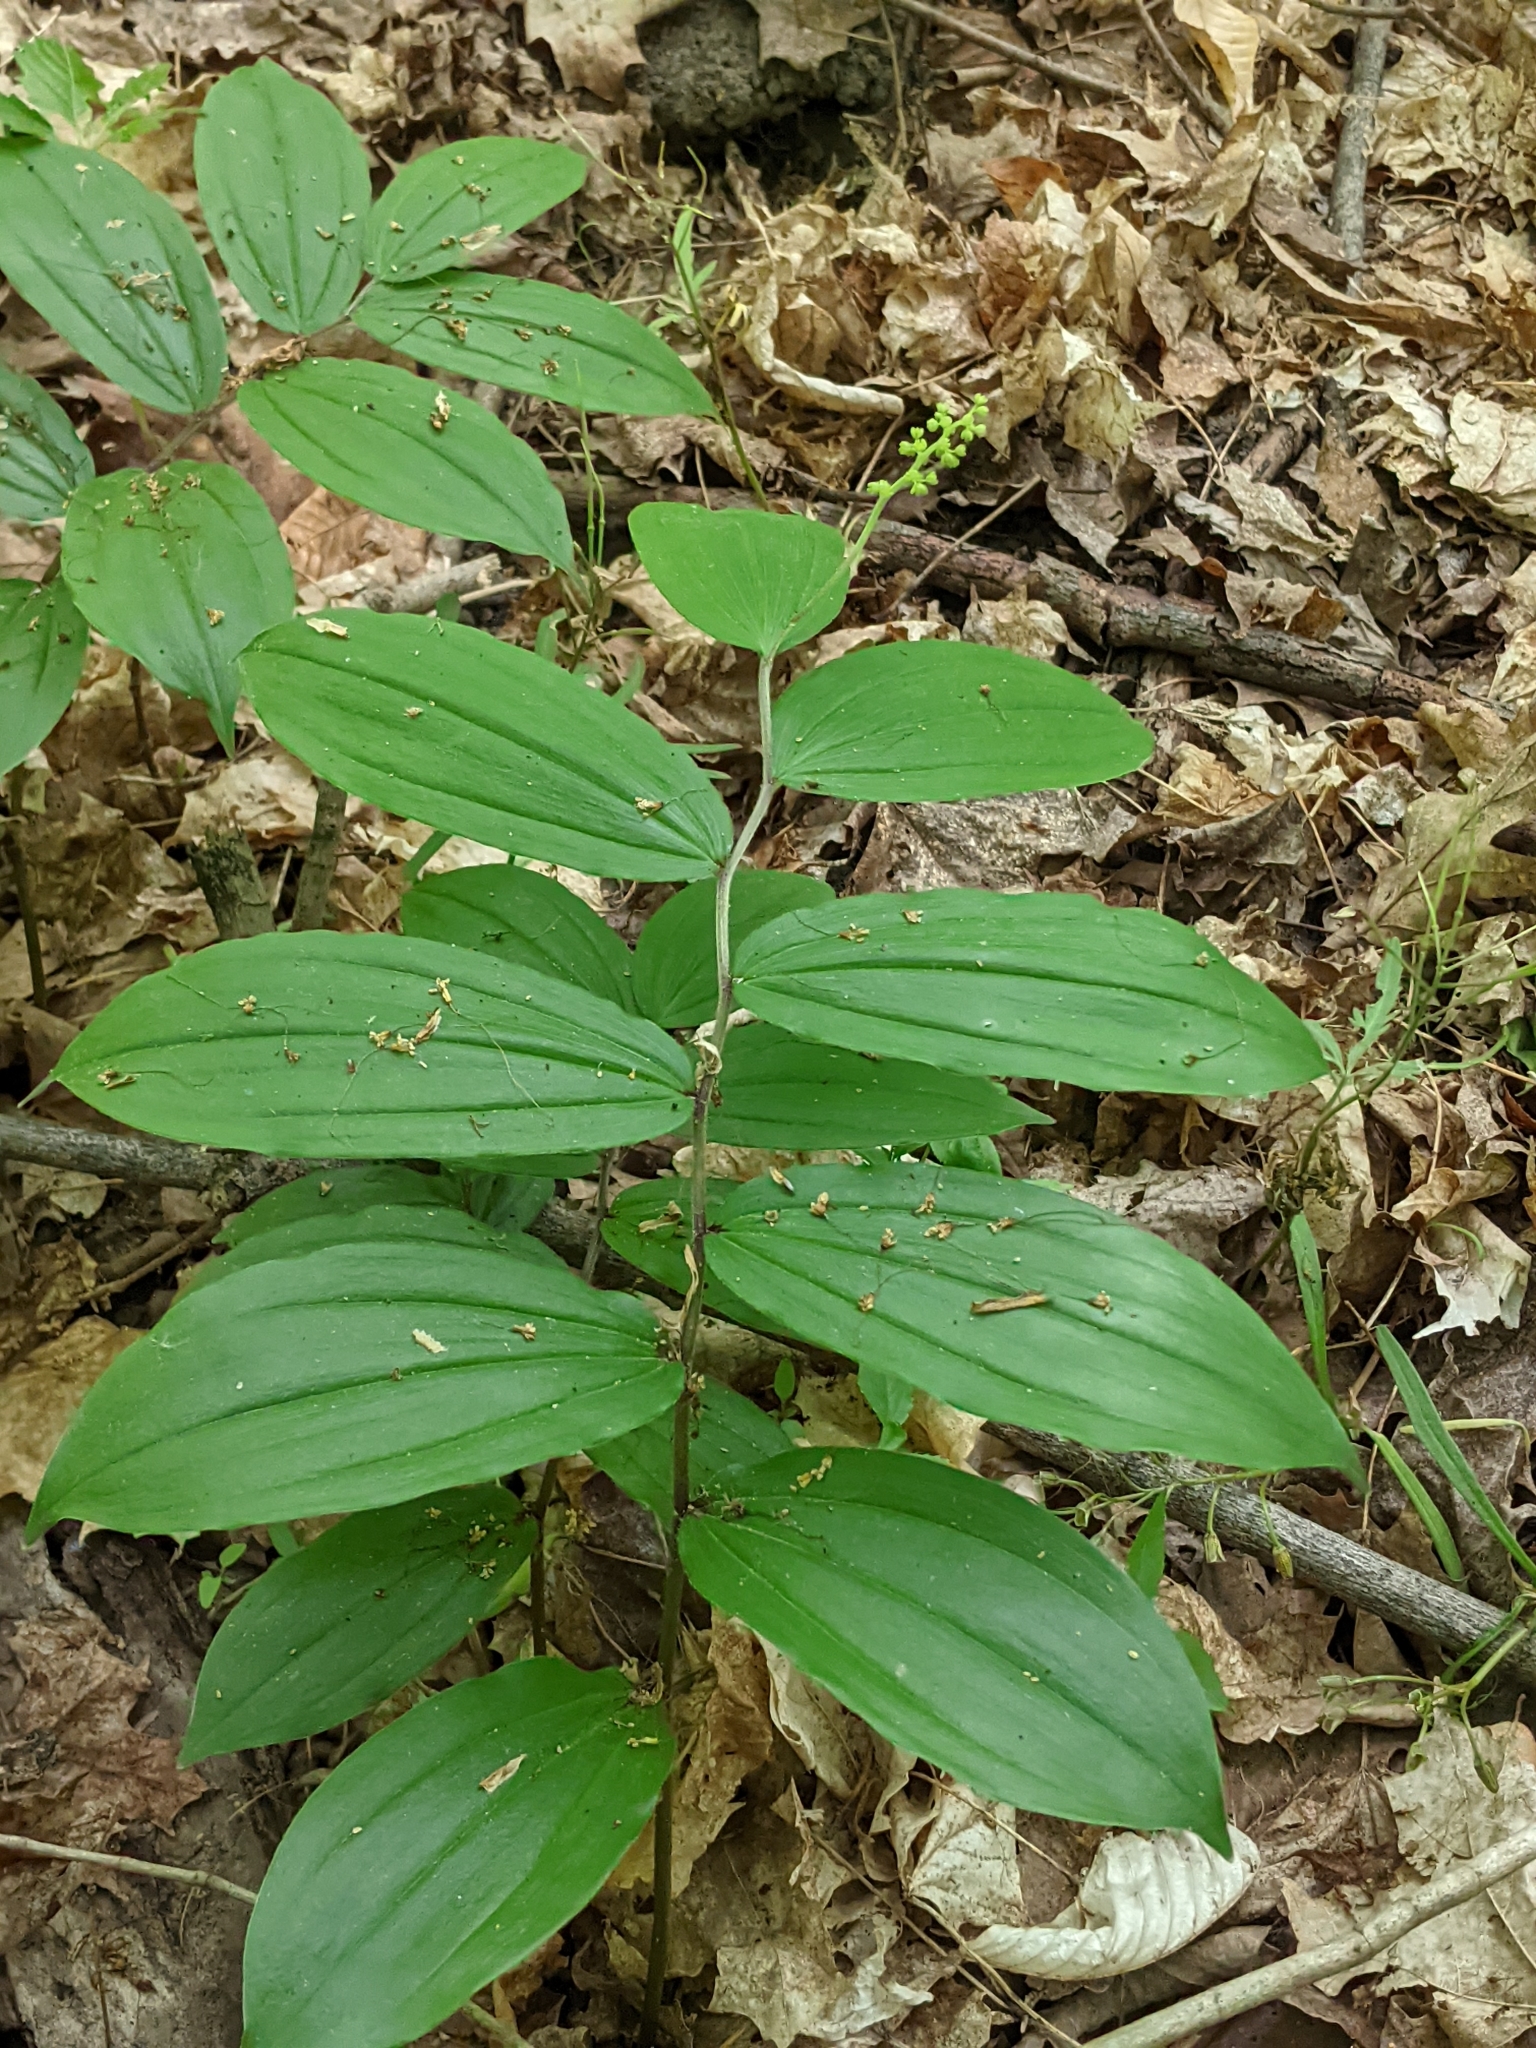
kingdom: Plantae
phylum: Tracheophyta
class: Liliopsida
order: Asparagales
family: Asparagaceae
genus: Maianthemum
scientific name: Maianthemum racemosum
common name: False spikenard
